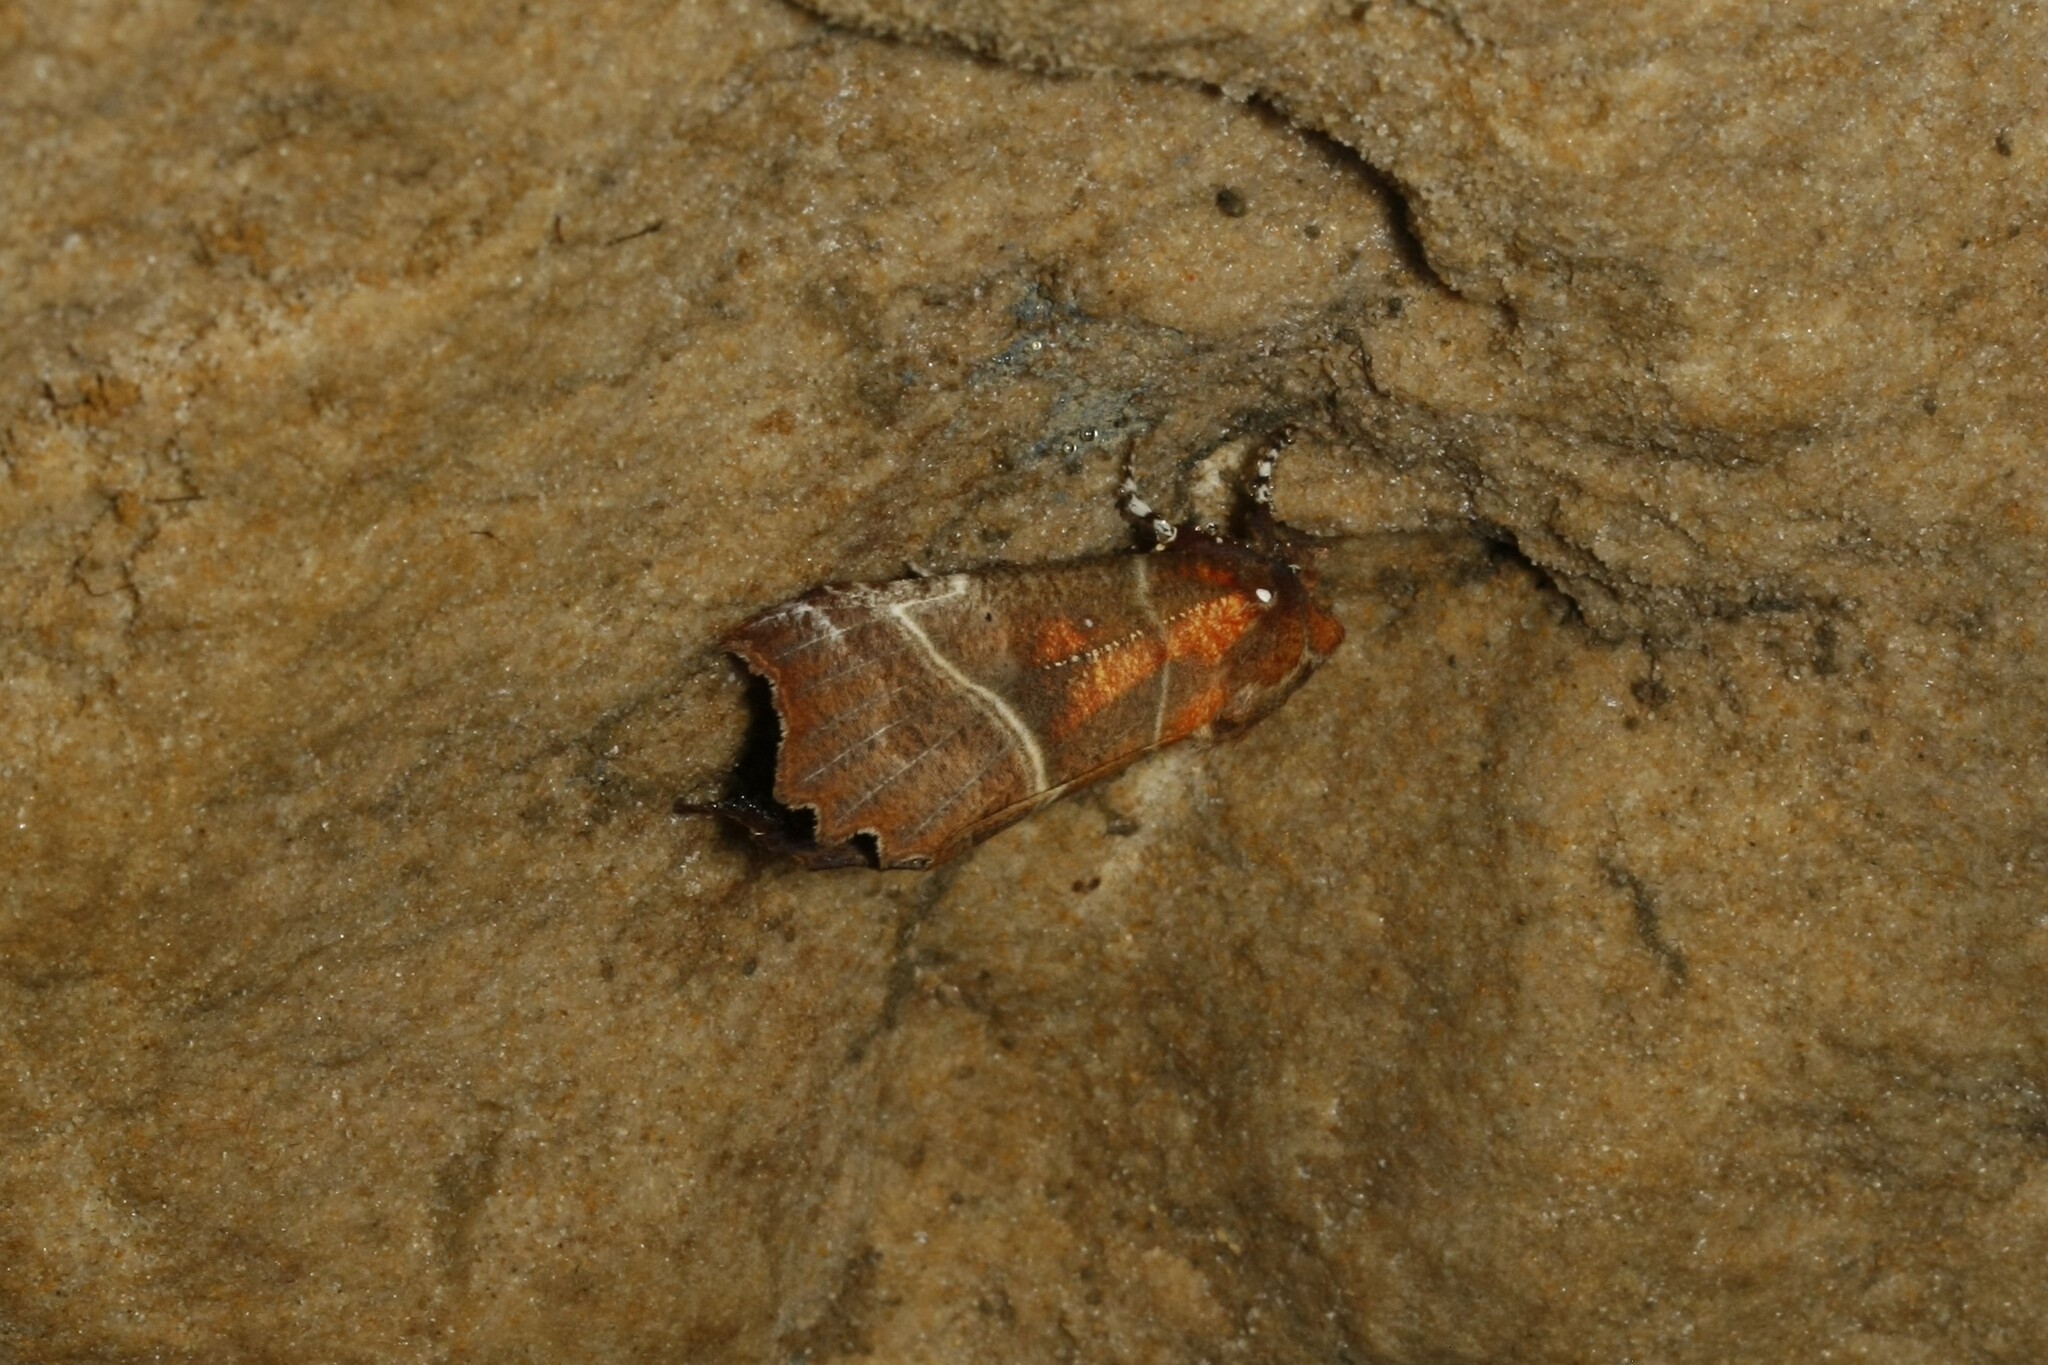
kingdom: Animalia
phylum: Arthropoda
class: Insecta
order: Lepidoptera
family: Erebidae
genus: Scoliopteryx
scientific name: Scoliopteryx libatrix
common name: Herald
